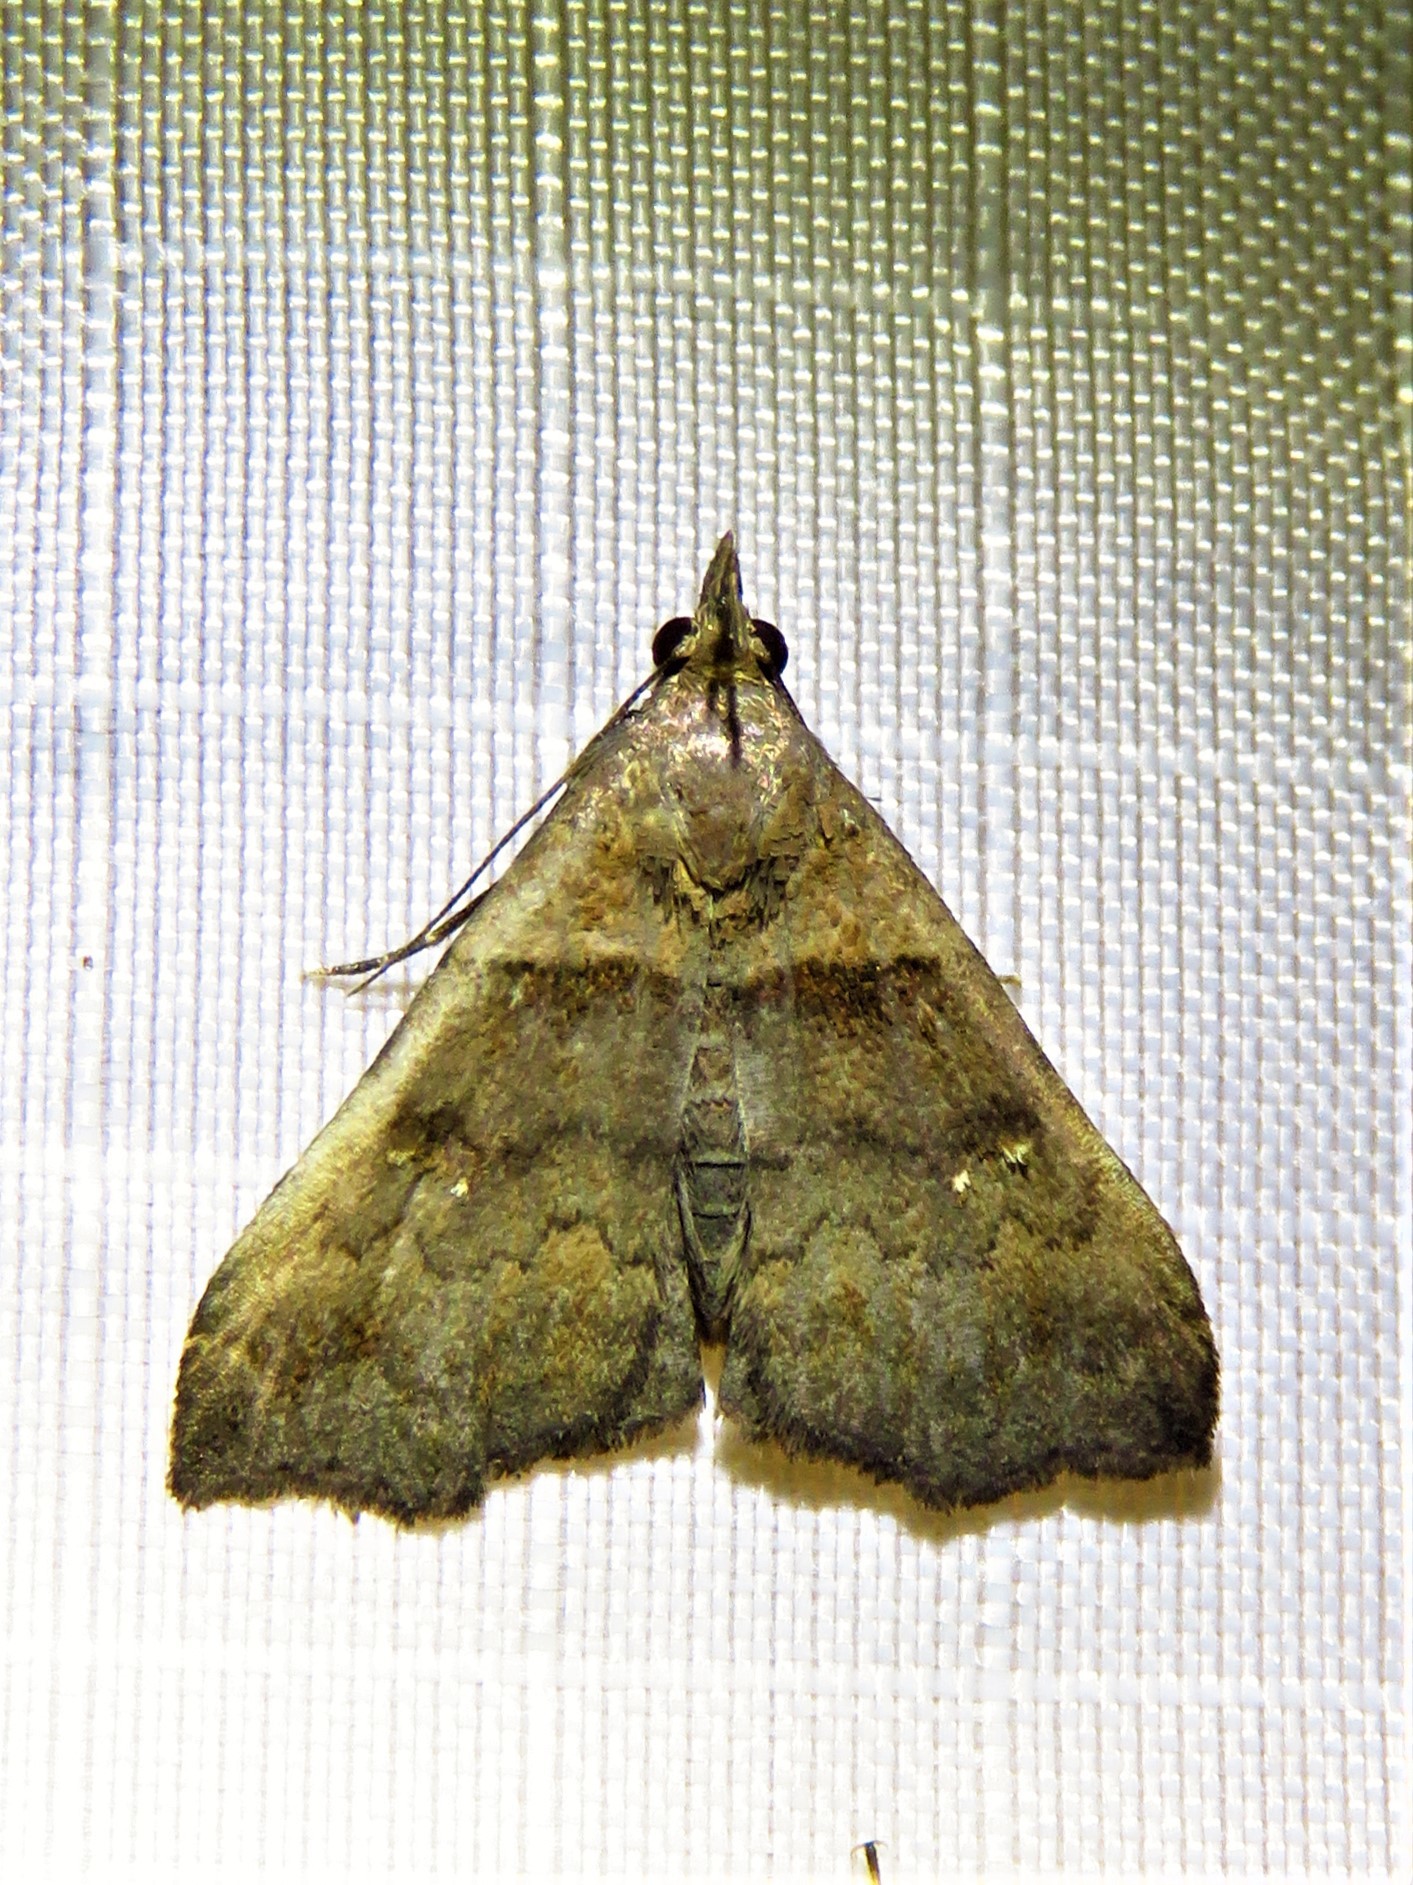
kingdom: Animalia
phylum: Arthropoda
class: Insecta
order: Lepidoptera
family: Erebidae
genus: Lascoria
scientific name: Lascoria ambigualis
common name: Ambiguous moth
